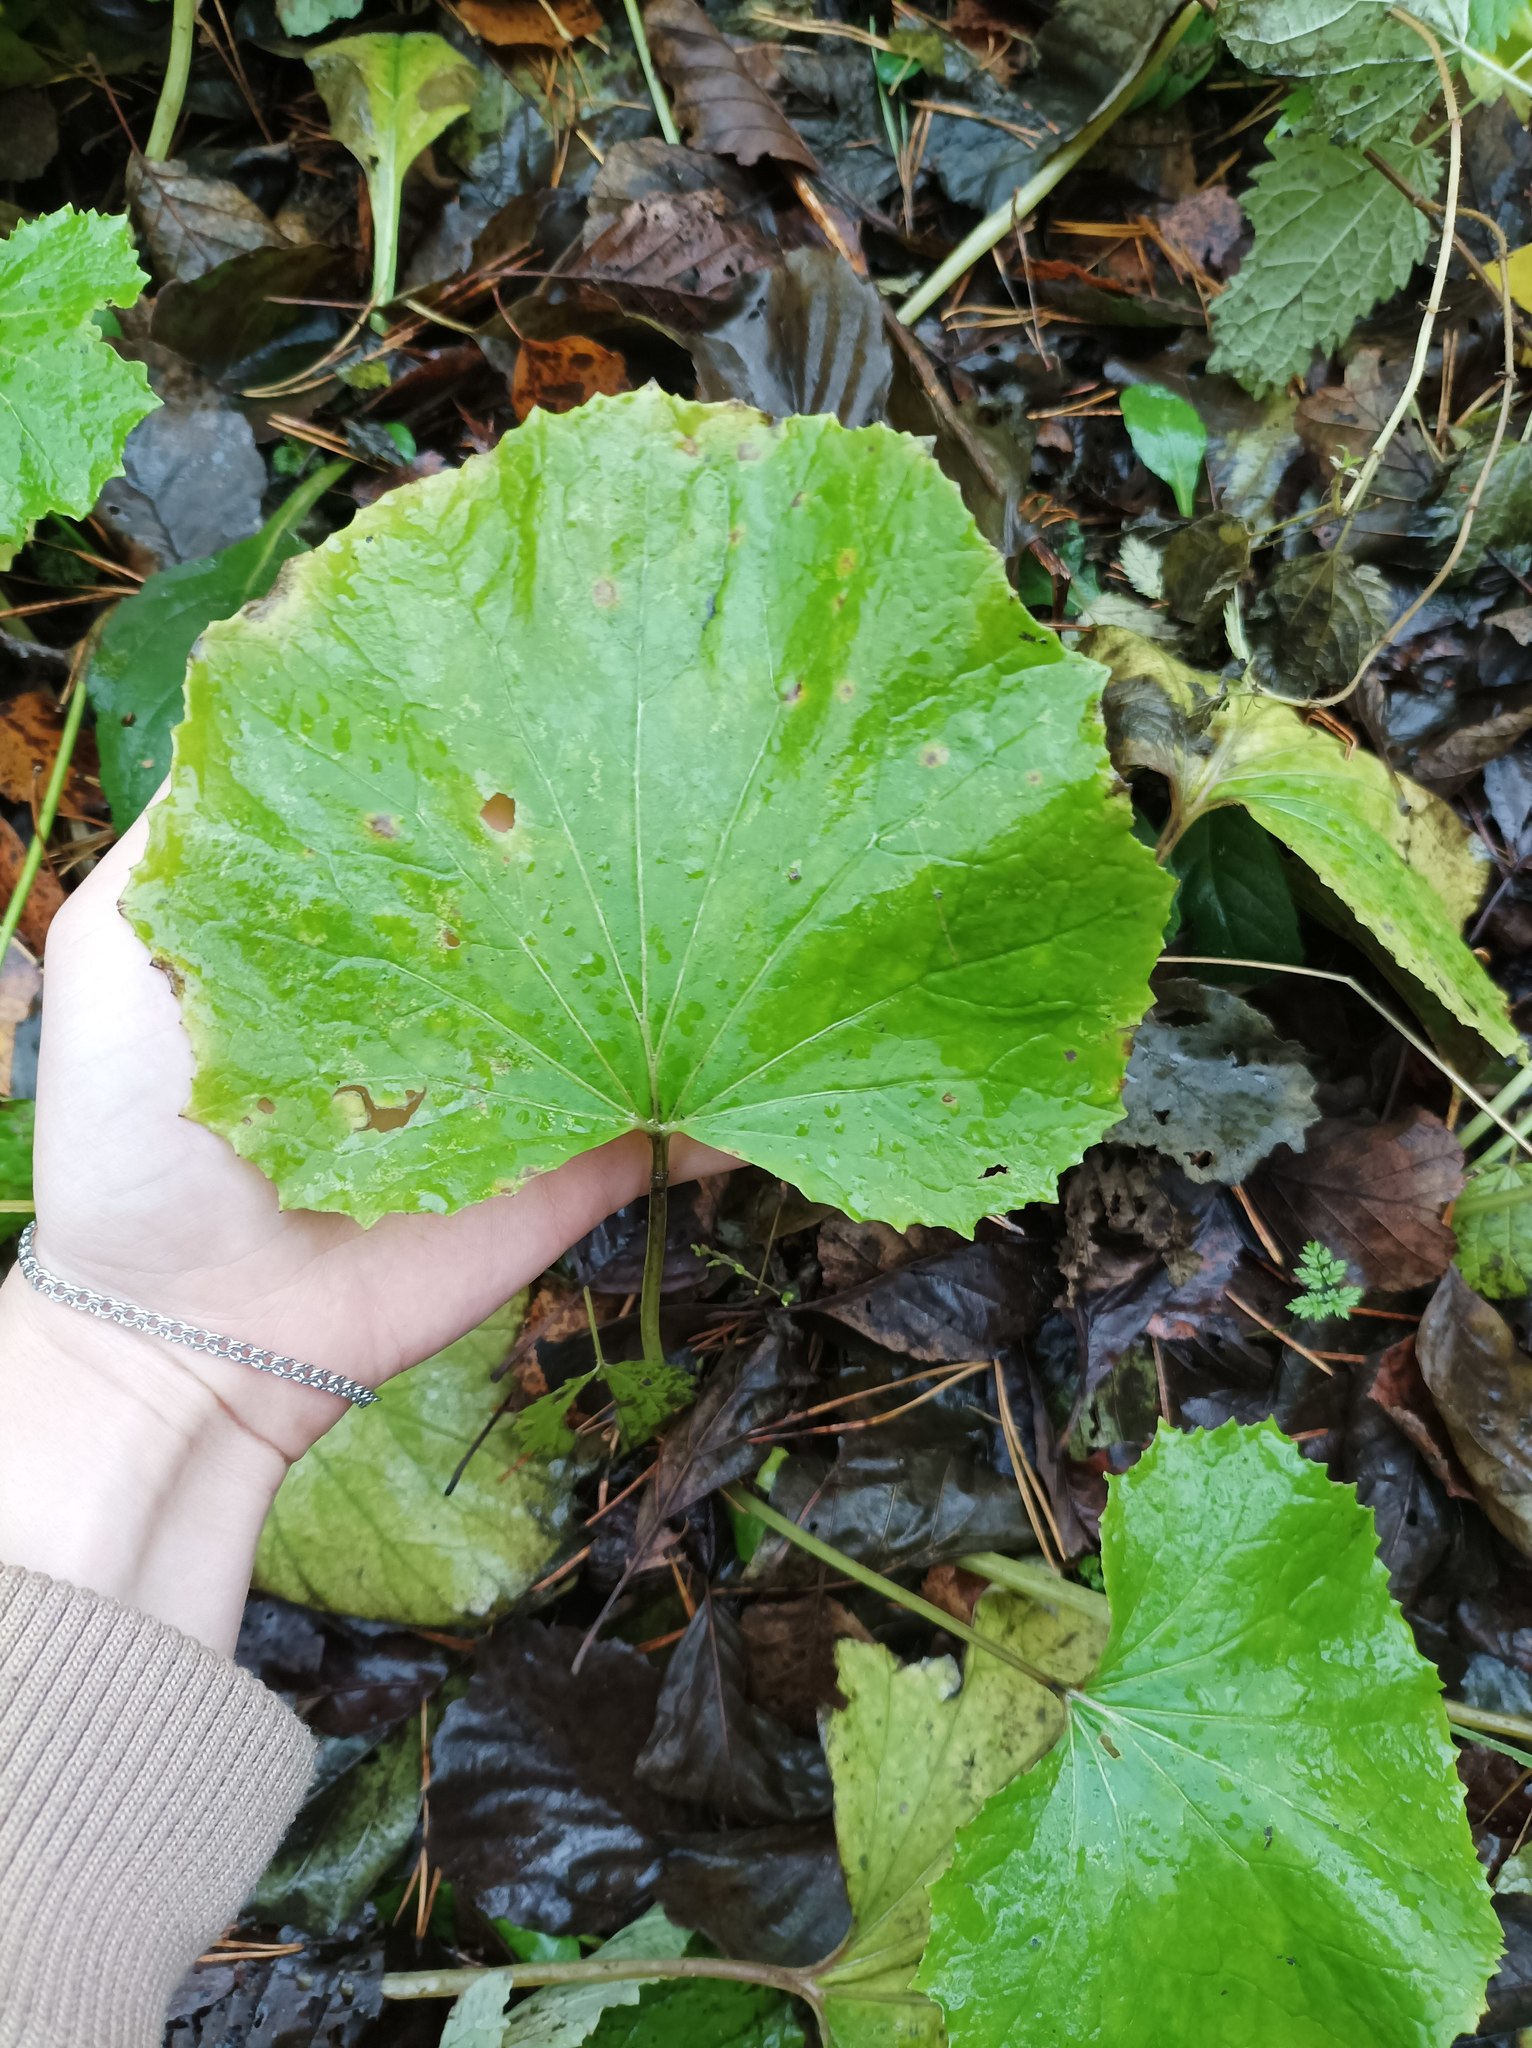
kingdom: Plantae
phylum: Tracheophyta
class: Magnoliopsida
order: Asterales
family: Asteraceae
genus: Tussilago
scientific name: Tussilago farfara
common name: Coltsfoot
